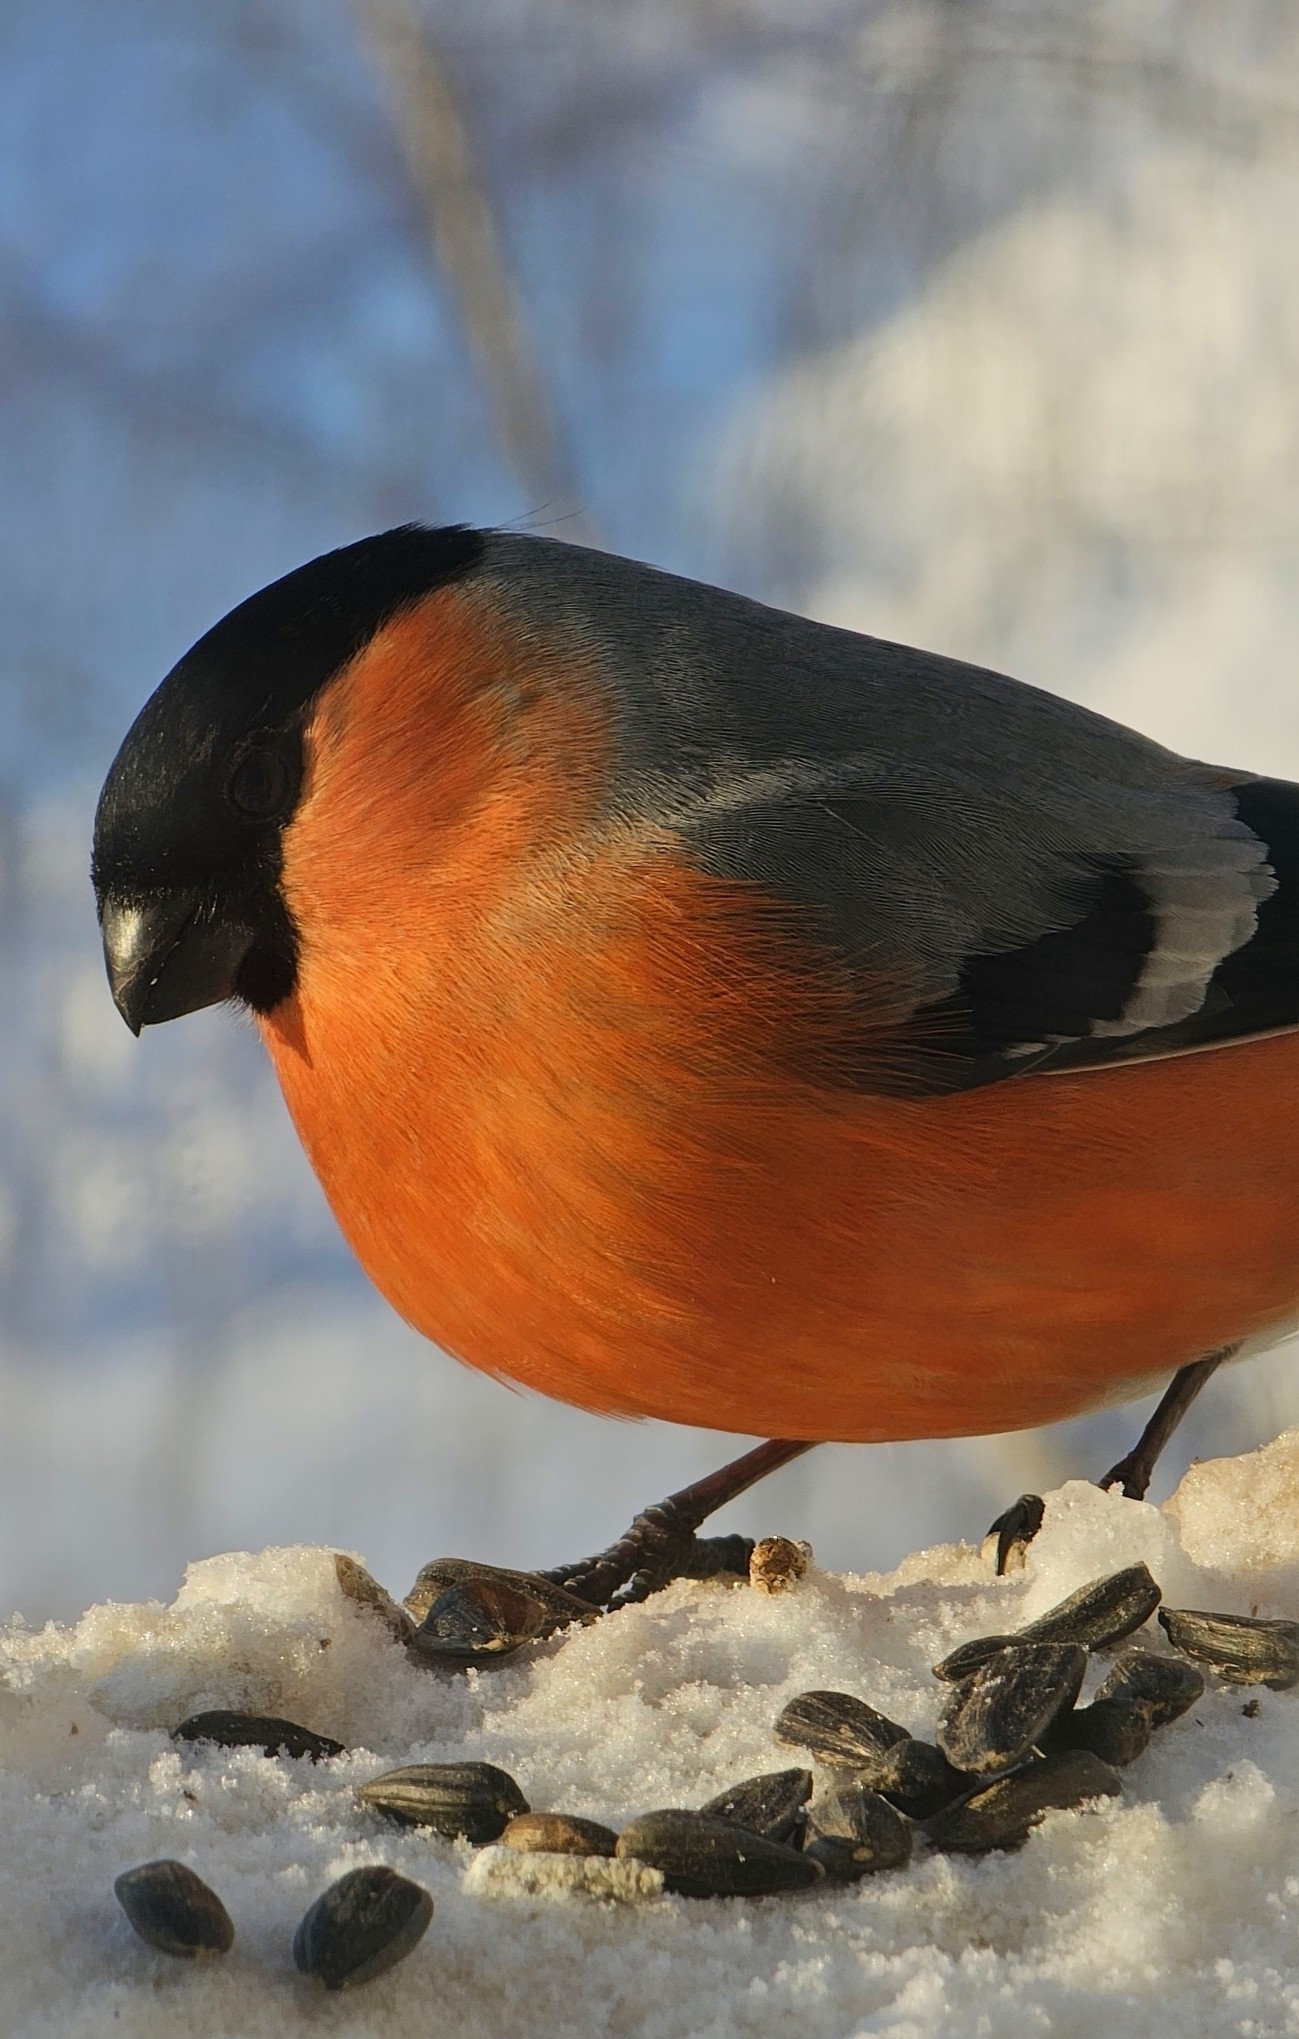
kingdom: Animalia
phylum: Chordata
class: Aves
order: Passeriformes
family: Fringillidae
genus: Pyrrhula
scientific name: Pyrrhula pyrrhula
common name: Eurasian bullfinch
